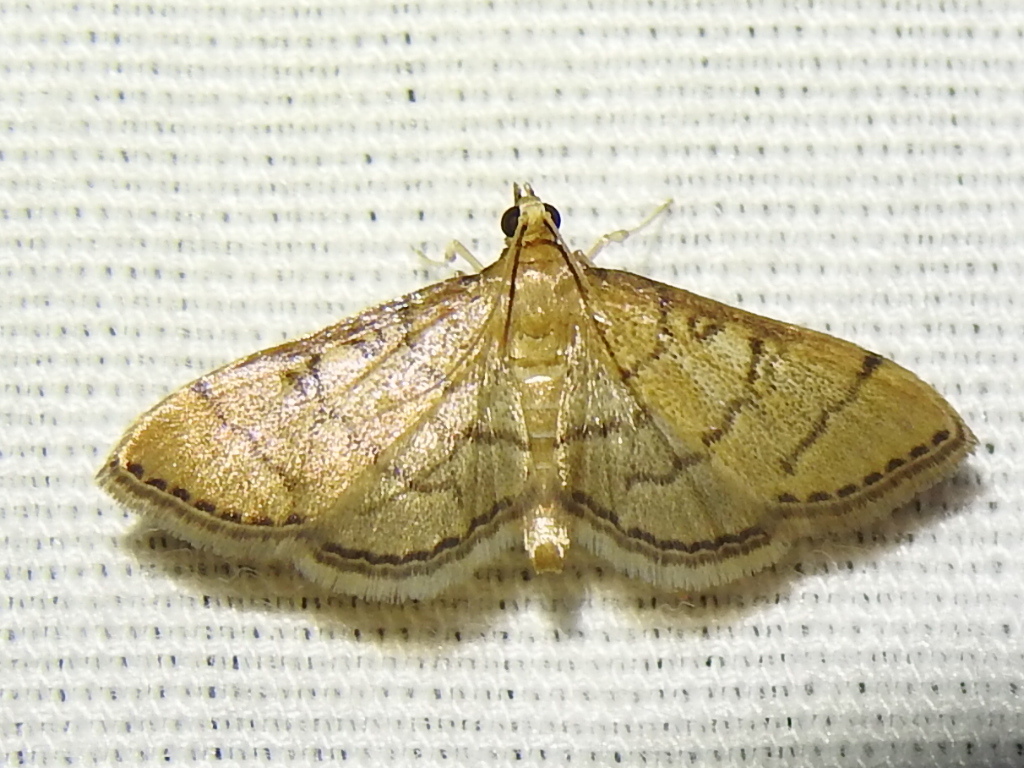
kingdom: Animalia
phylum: Arthropoda
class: Insecta
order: Lepidoptera
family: Crambidae
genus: Lamprosema
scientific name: Lamprosema Blepharomastix ranalis
